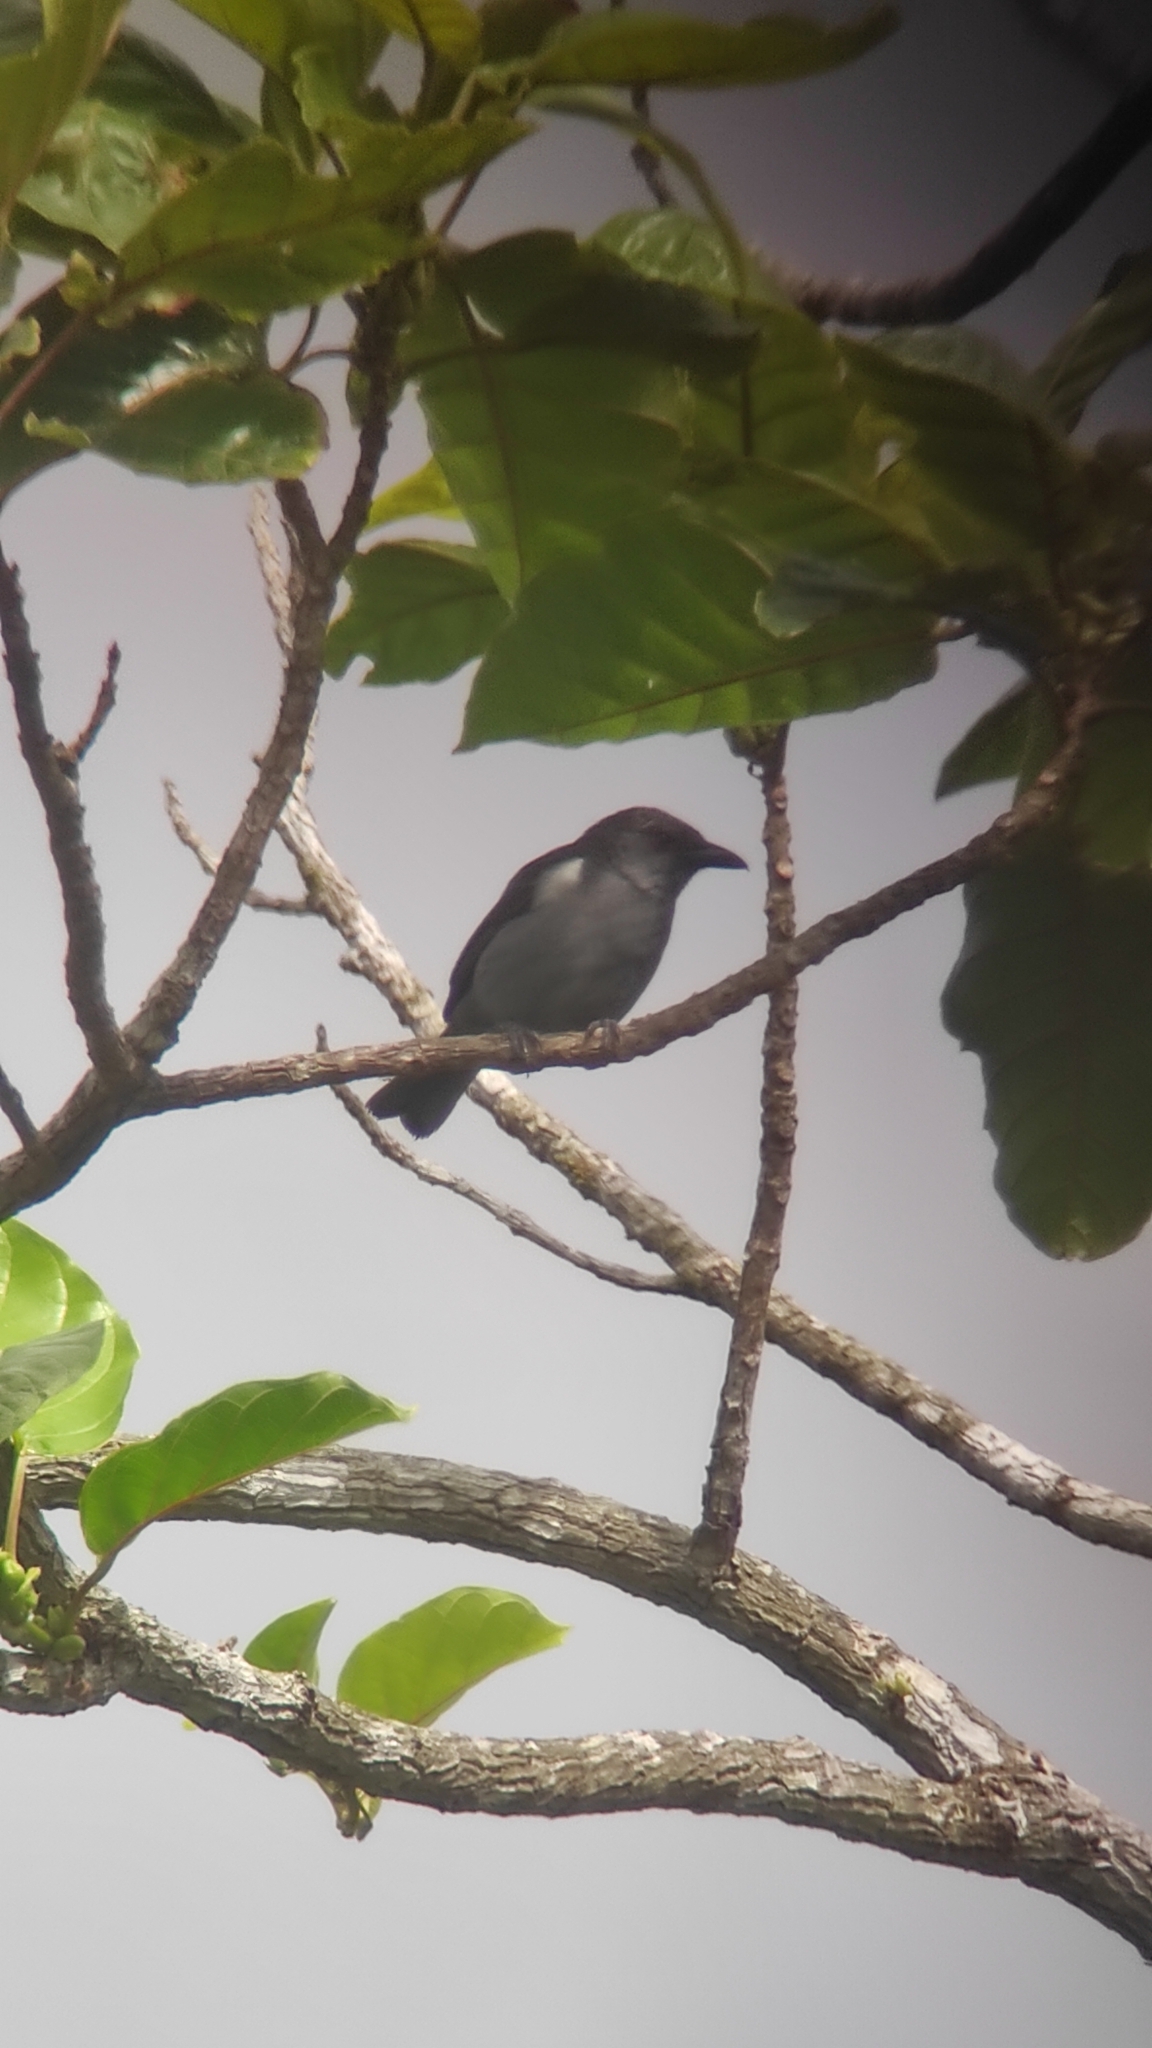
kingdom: Animalia
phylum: Chordata
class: Aves
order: Passeriformes
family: Thraupidae
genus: Heterospingus
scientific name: Heterospingus rubrifrons
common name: Sulphur-rumped tanager
